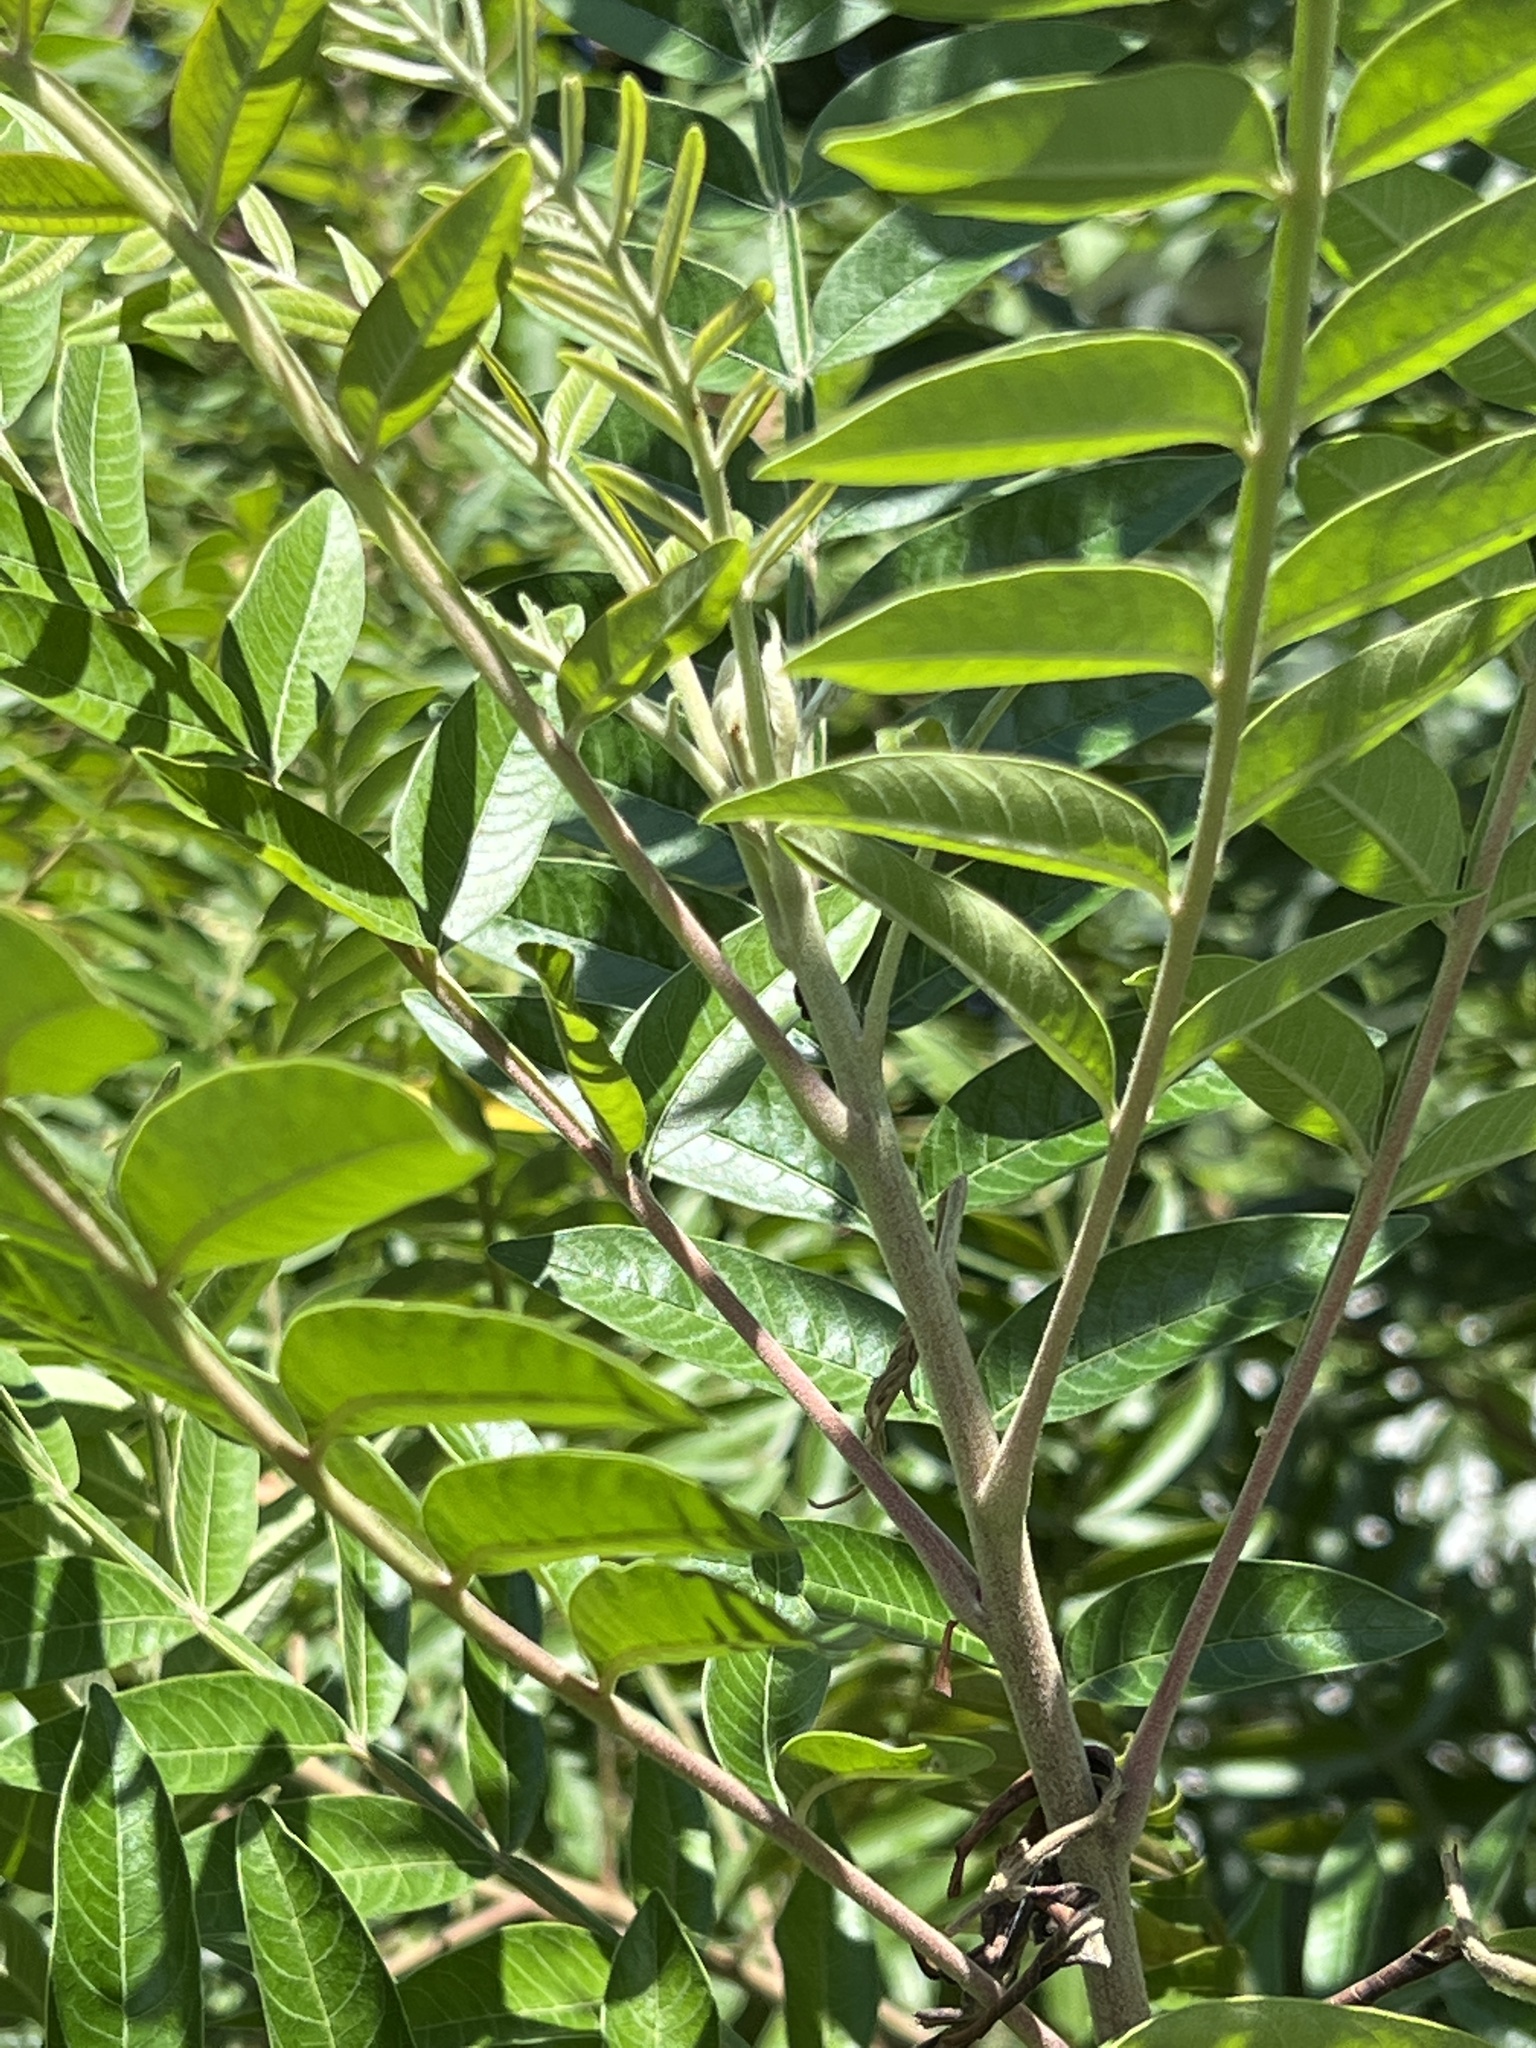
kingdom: Plantae
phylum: Tracheophyta
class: Magnoliopsida
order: Sapindales
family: Anacardiaceae
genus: Rhus
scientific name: Rhus copallina
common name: Shining sumac
